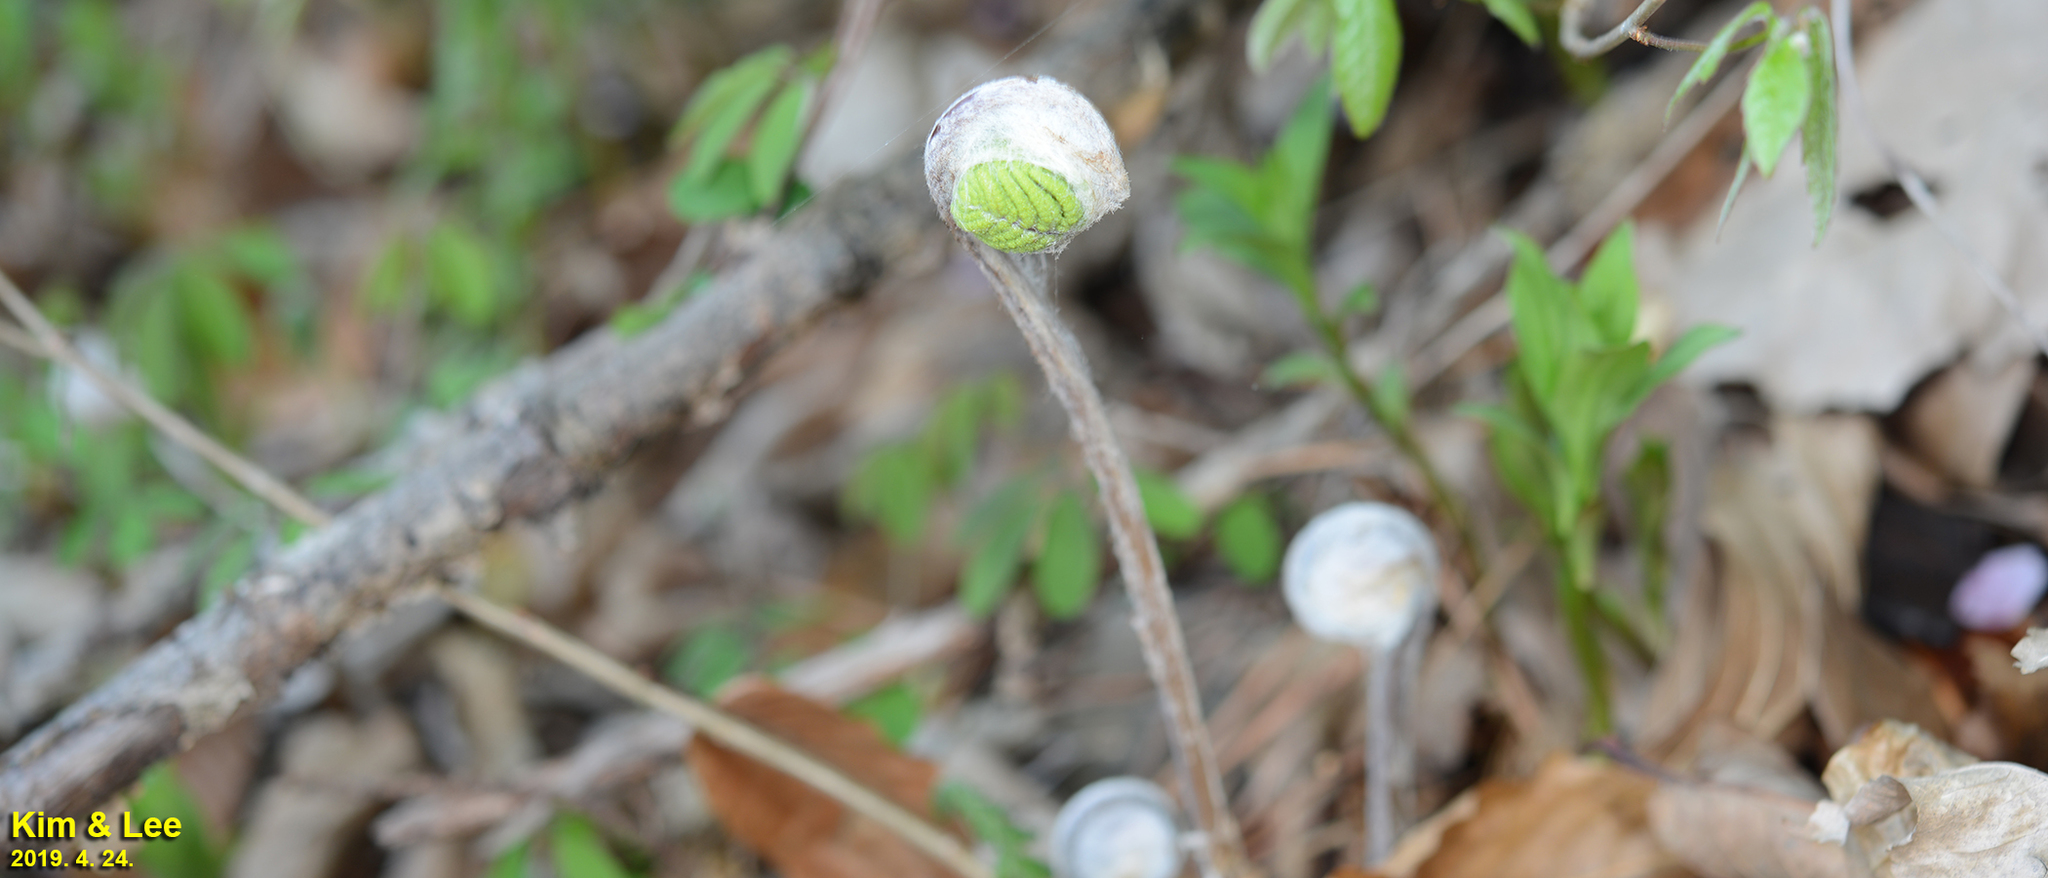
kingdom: Plantae
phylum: Tracheophyta
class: Polypodiopsida
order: Osmundales
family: Osmundaceae
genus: Osmunda
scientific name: Osmunda japonica
